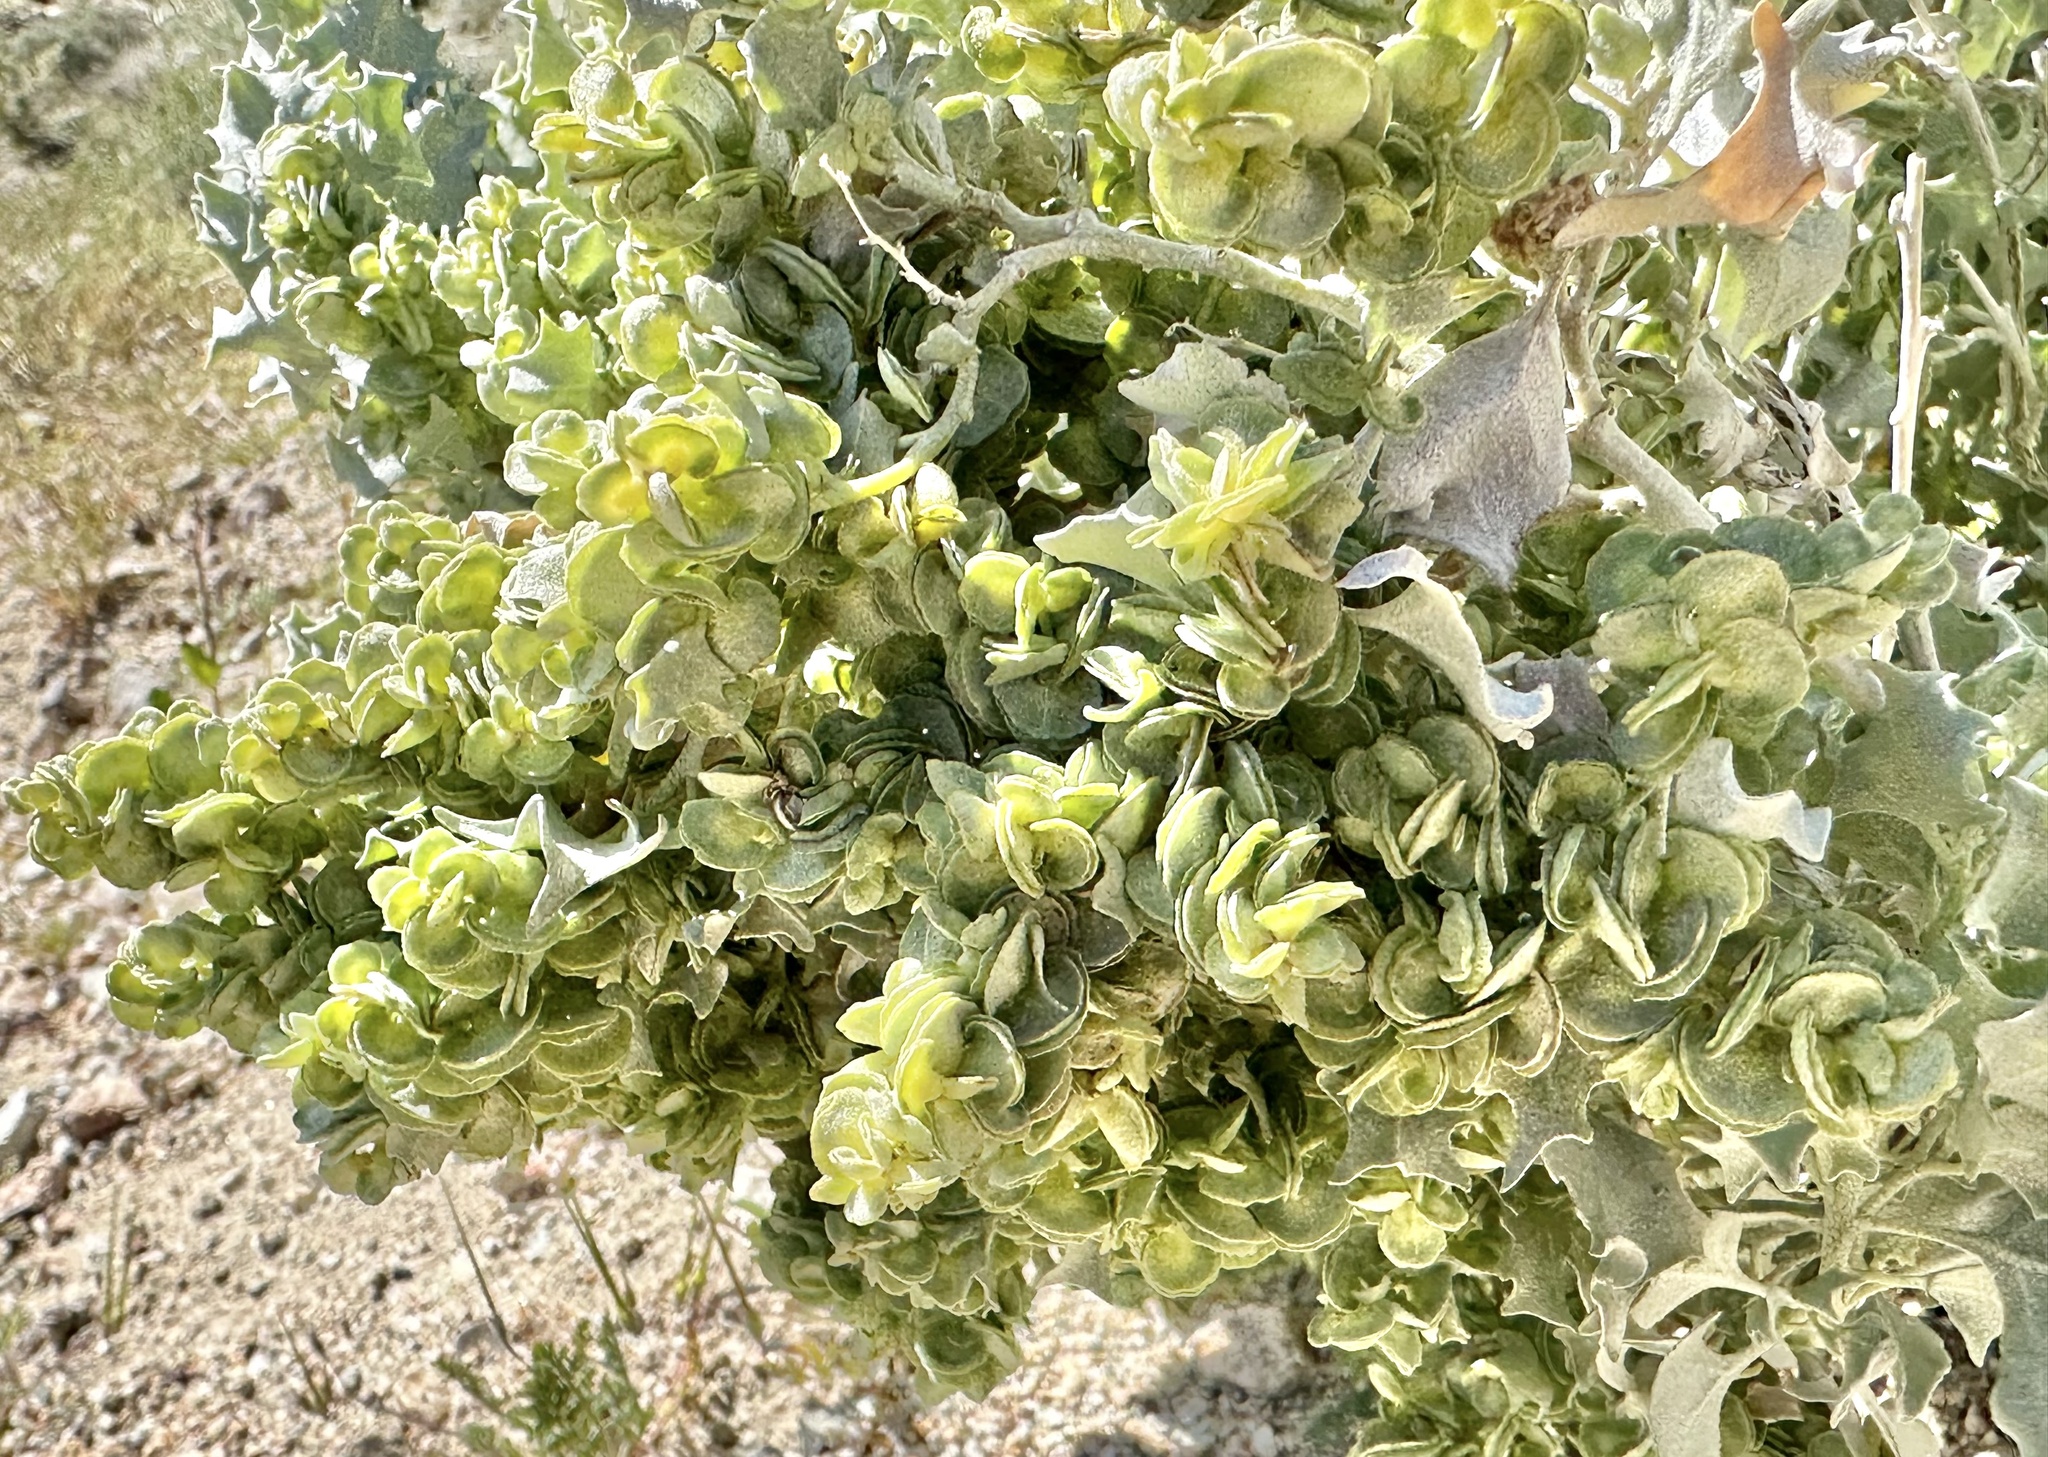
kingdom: Plantae
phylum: Tracheophyta
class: Magnoliopsida
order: Caryophyllales
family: Amaranthaceae
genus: Atriplex
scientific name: Atriplex hymenelytra
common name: Desert-holly
